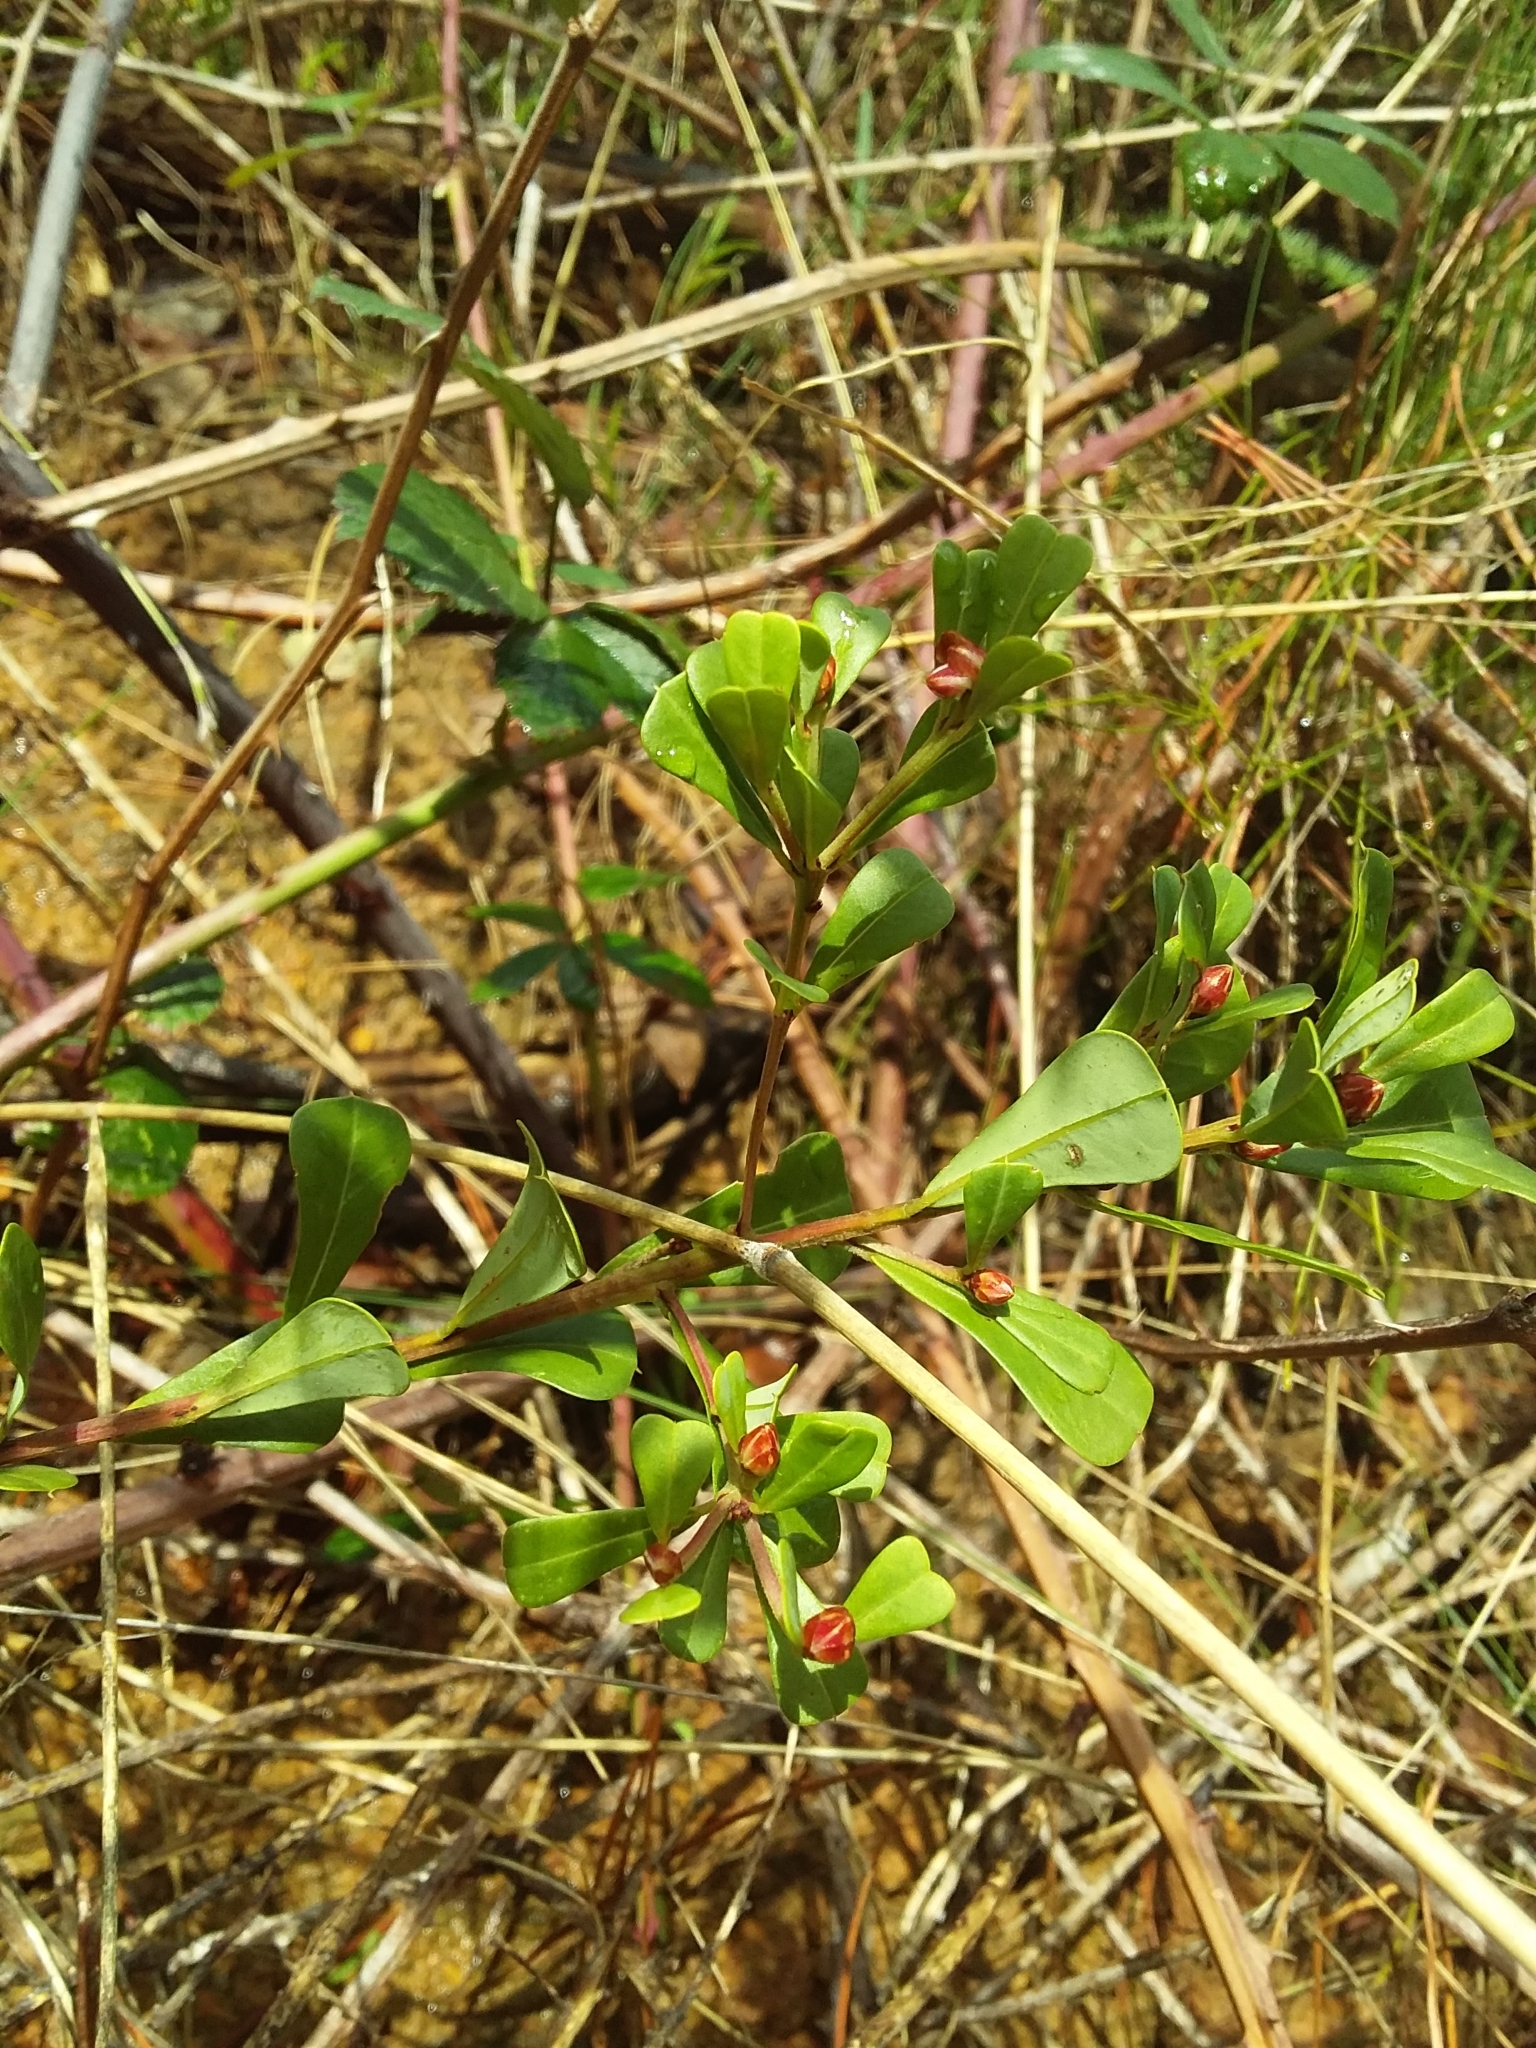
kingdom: Plantae
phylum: Tracheophyta
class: Magnoliopsida
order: Fabales
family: Fabaceae
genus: Pultenaea
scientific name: Pultenaea daphnoides
